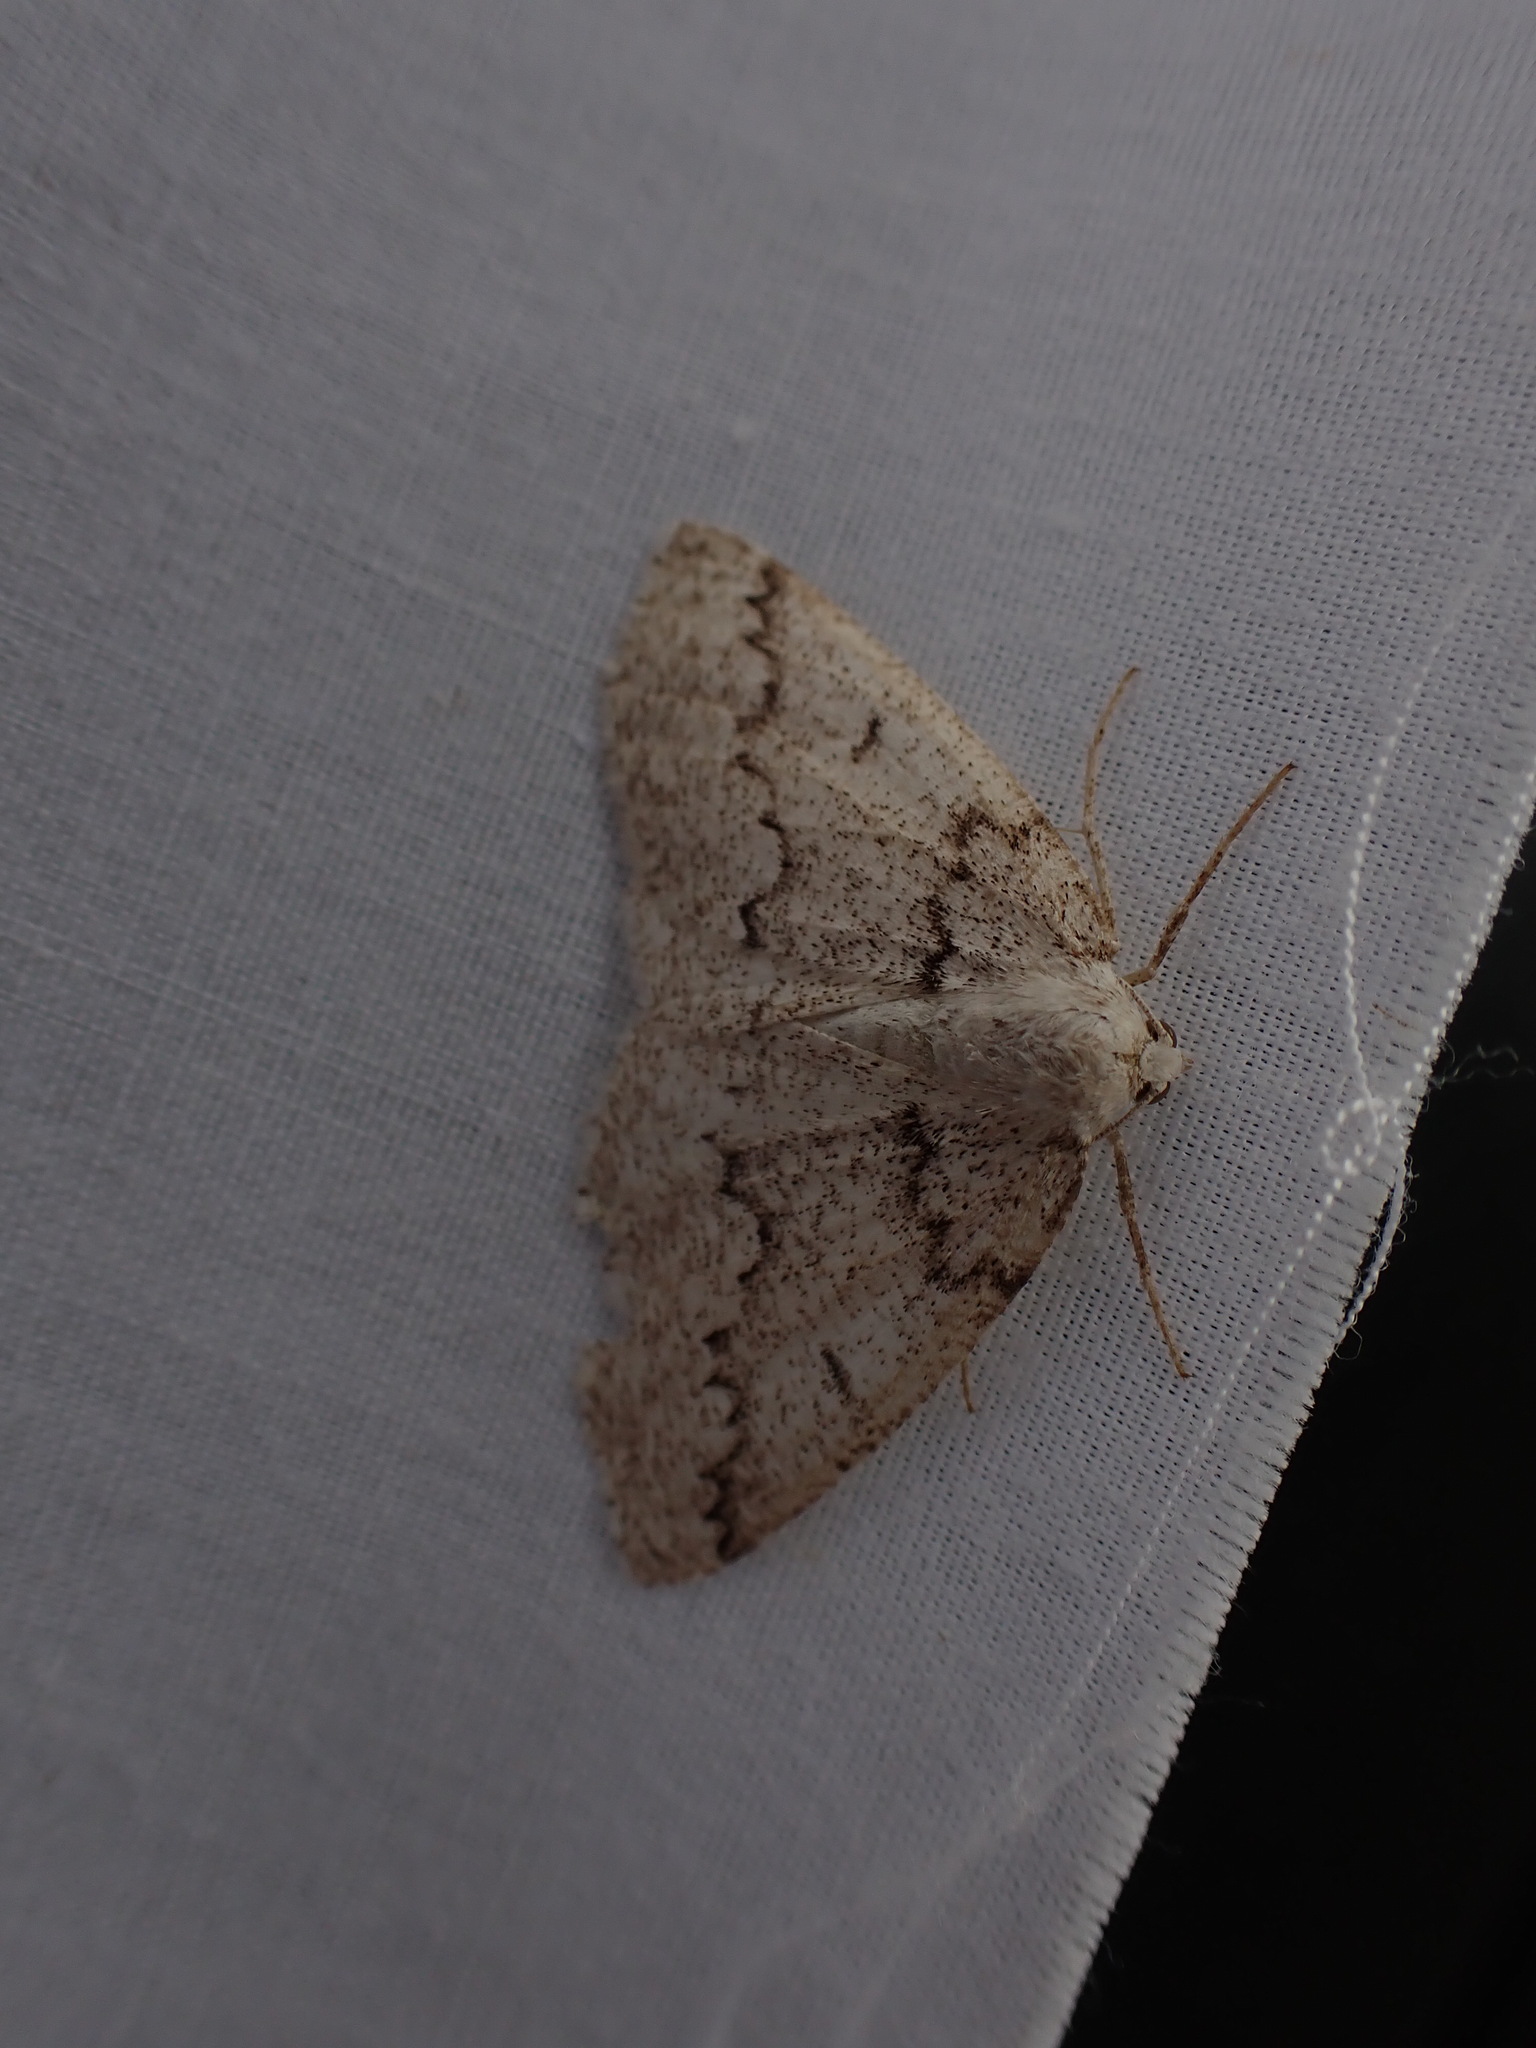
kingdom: Animalia
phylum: Arthropoda
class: Insecta
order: Lepidoptera
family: Geometridae
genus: Sabulodes
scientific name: Sabulodes
